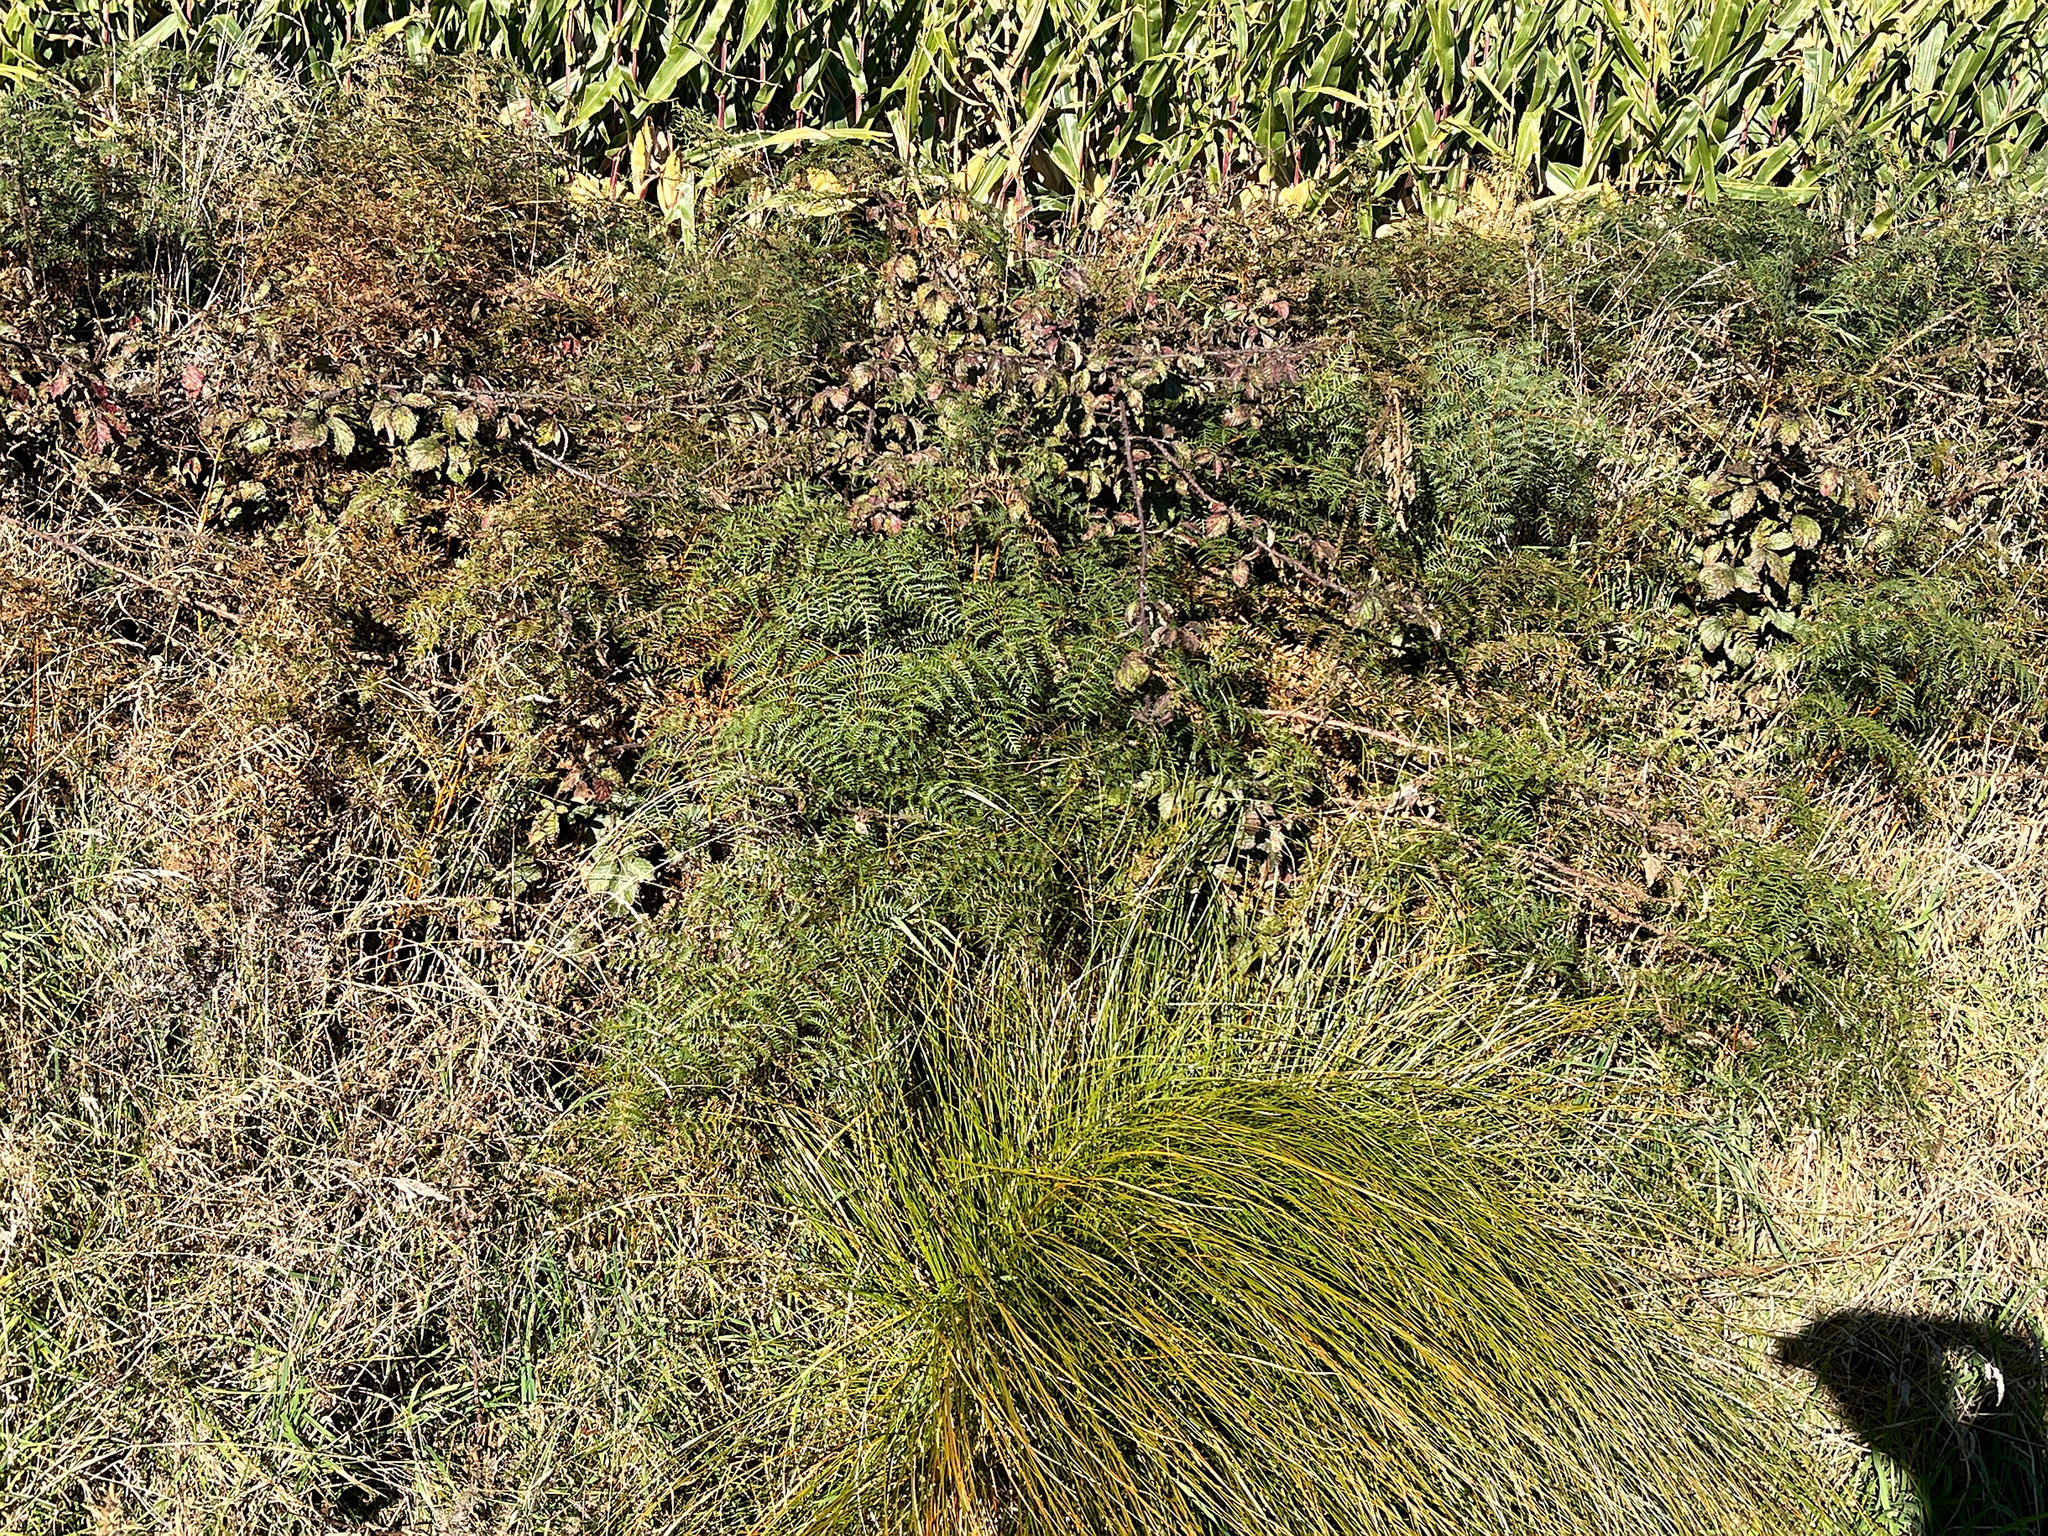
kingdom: Plantae
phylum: Tracheophyta
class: Polypodiopsida
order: Polypodiales
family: Dennstaedtiaceae
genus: Pteridium
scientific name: Pteridium esculentum
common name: Bracken fern
